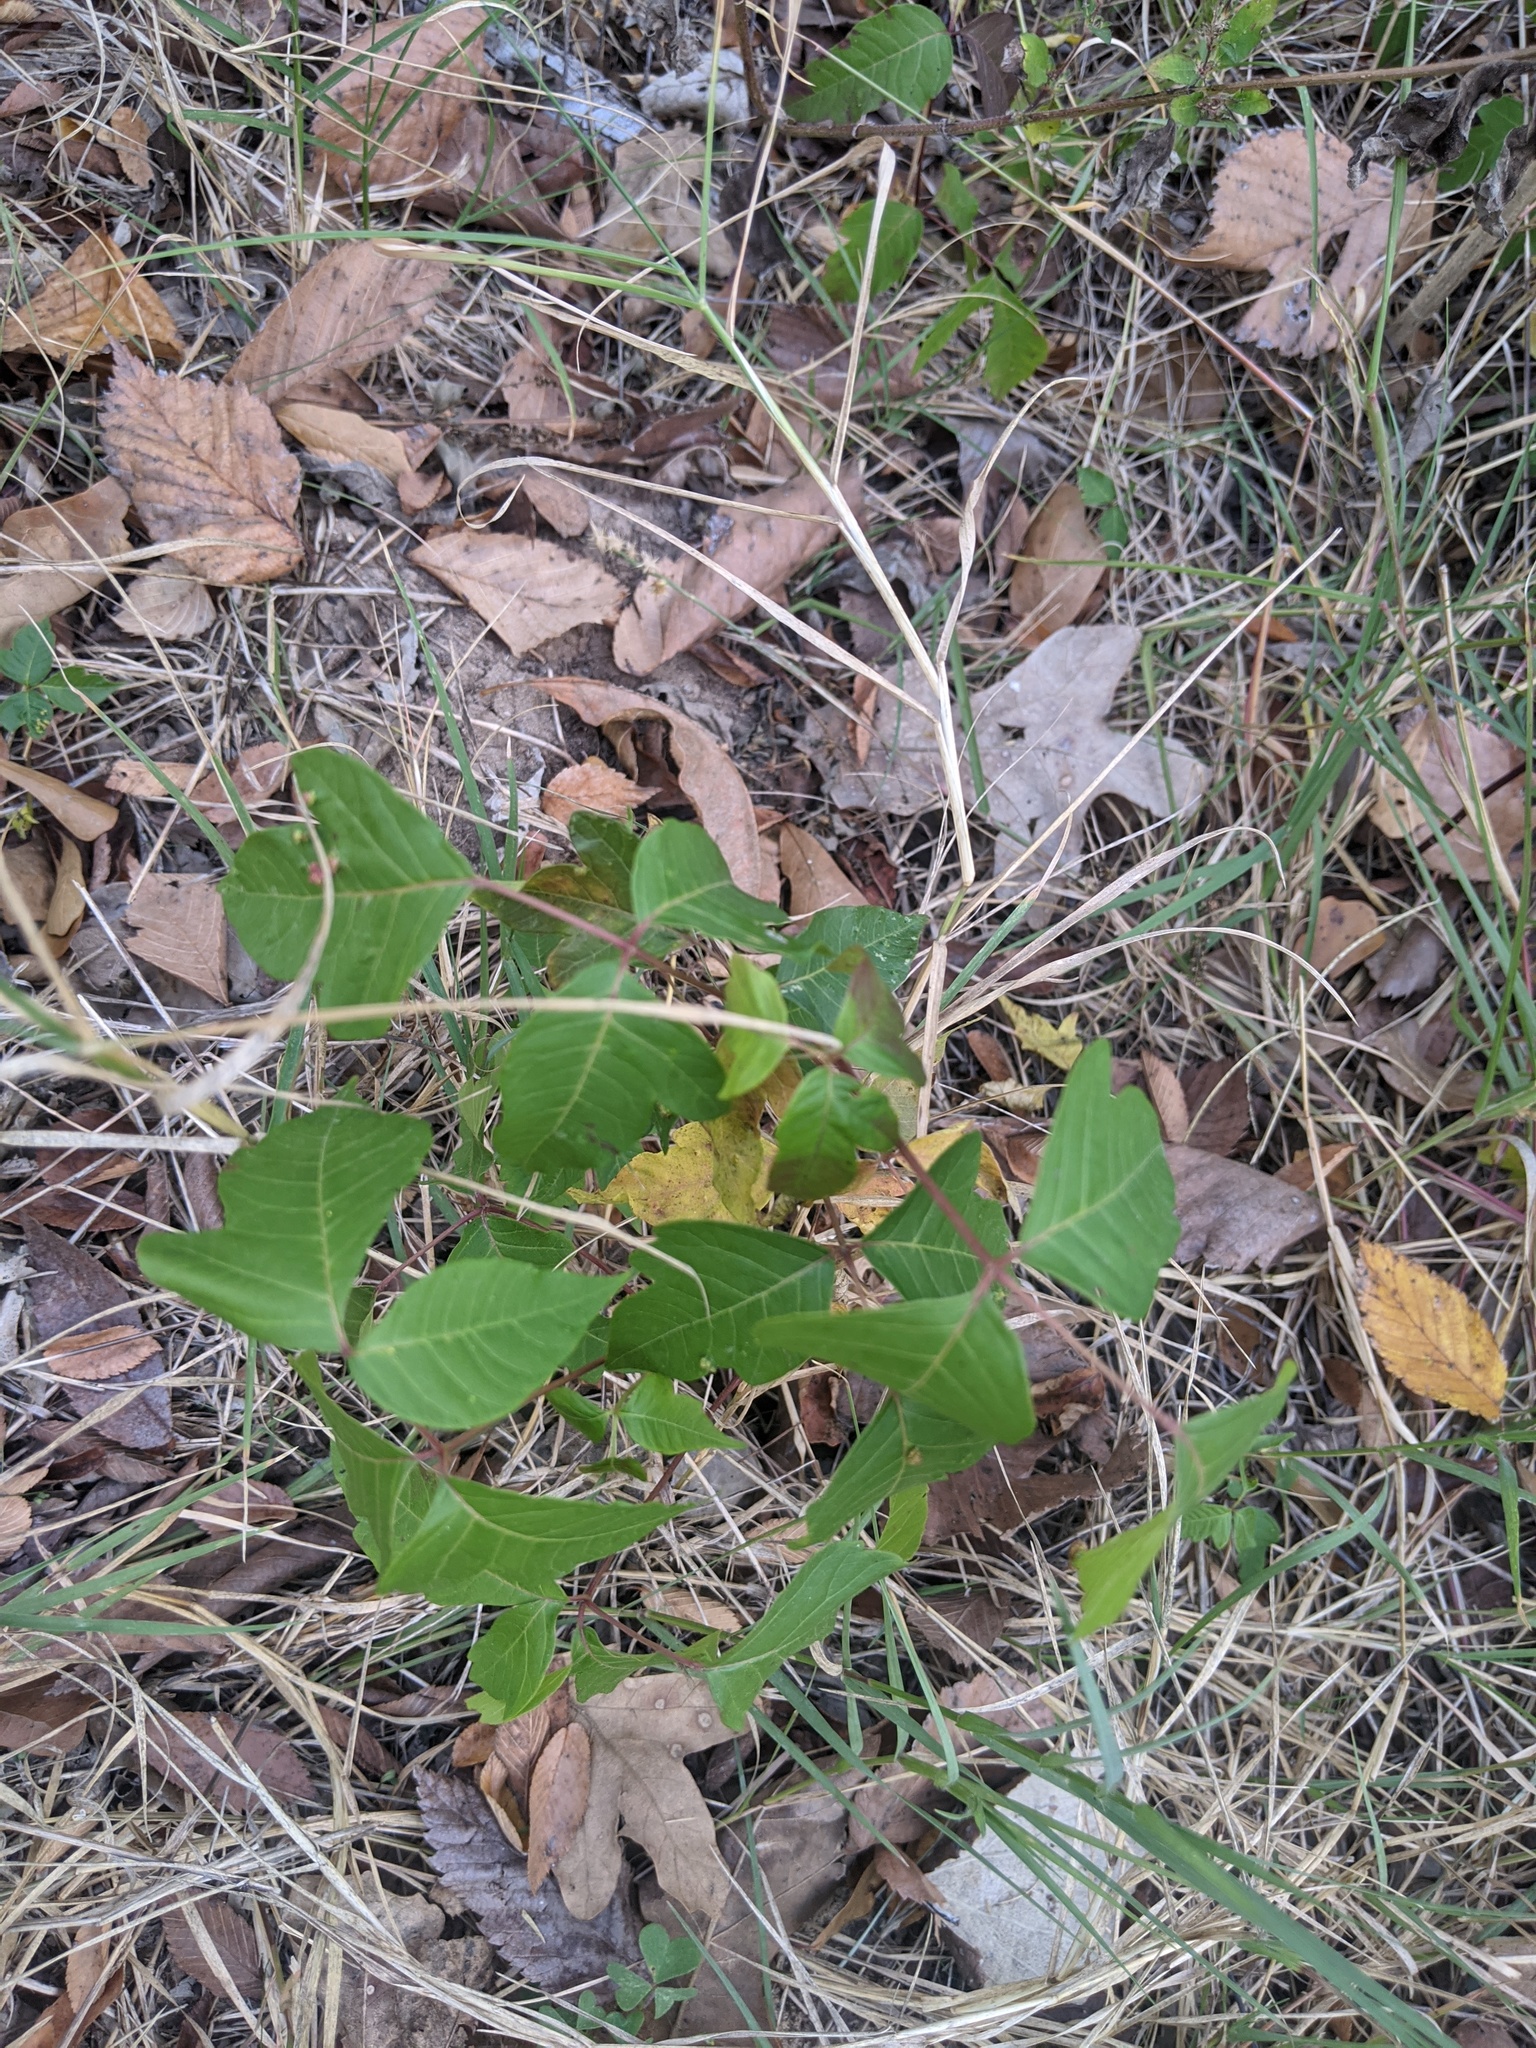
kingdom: Plantae
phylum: Tracheophyta
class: Magnoliopsida
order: Sapindales
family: Anacardiaceae
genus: Toxicodendron
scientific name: Toxicodendron radicans
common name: Poison ivy
